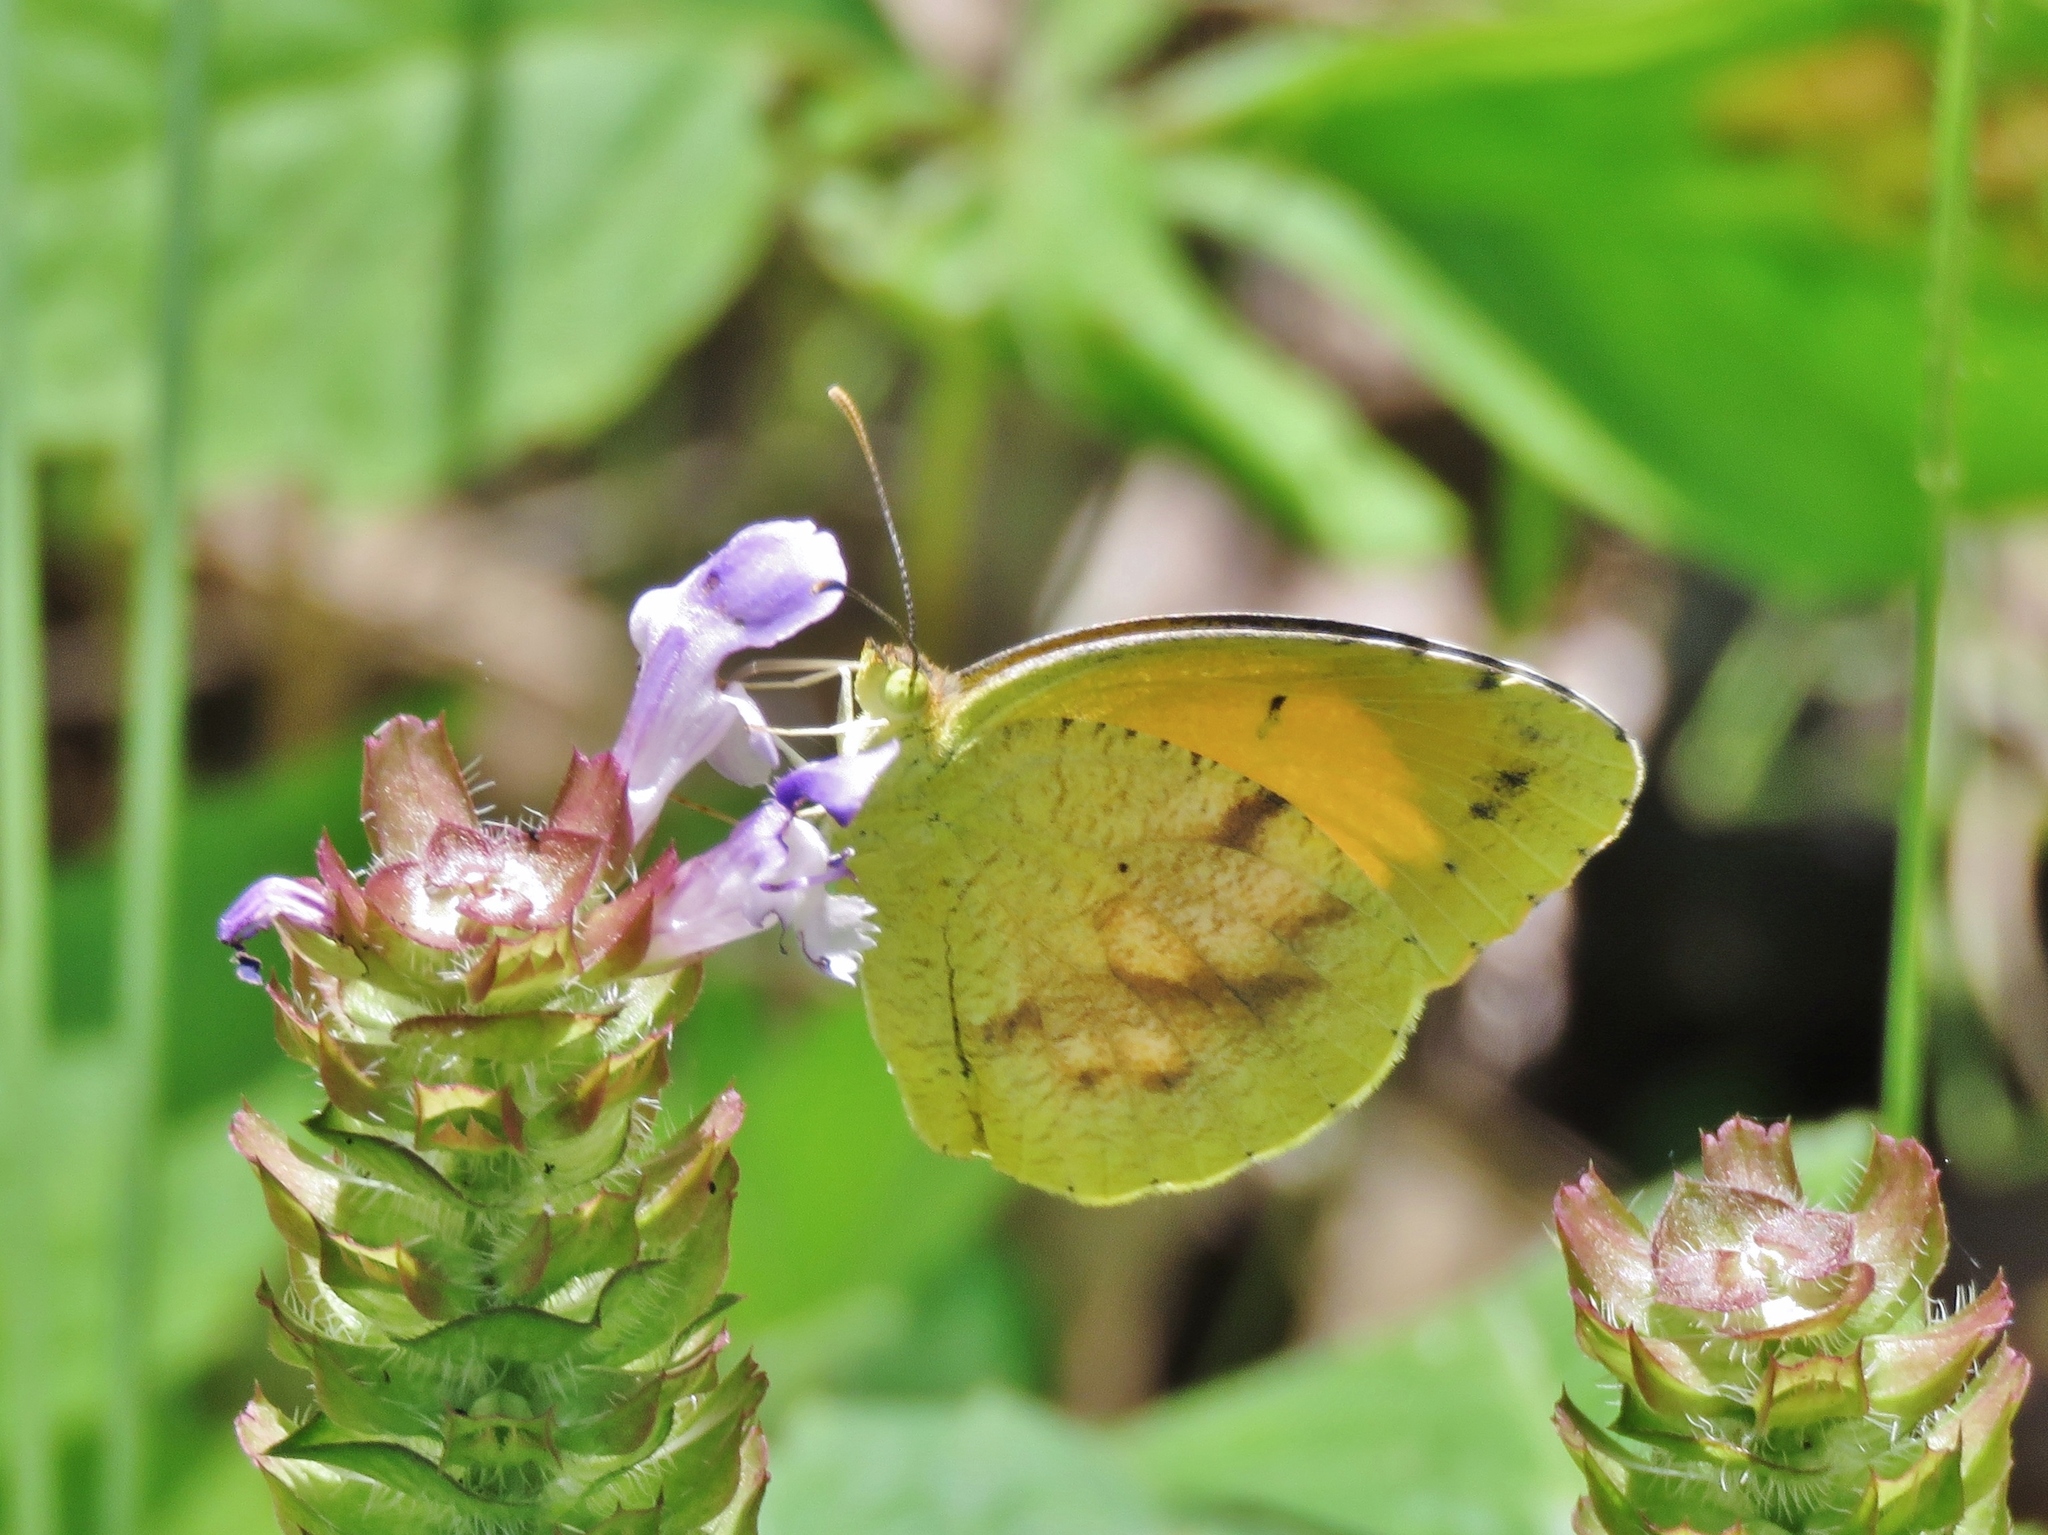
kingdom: Animalia
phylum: Arthropoda
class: Insecta
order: Lepidoptera
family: Pieridae
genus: Abaeis
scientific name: Abaeis nicippe
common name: Sleepy orange
